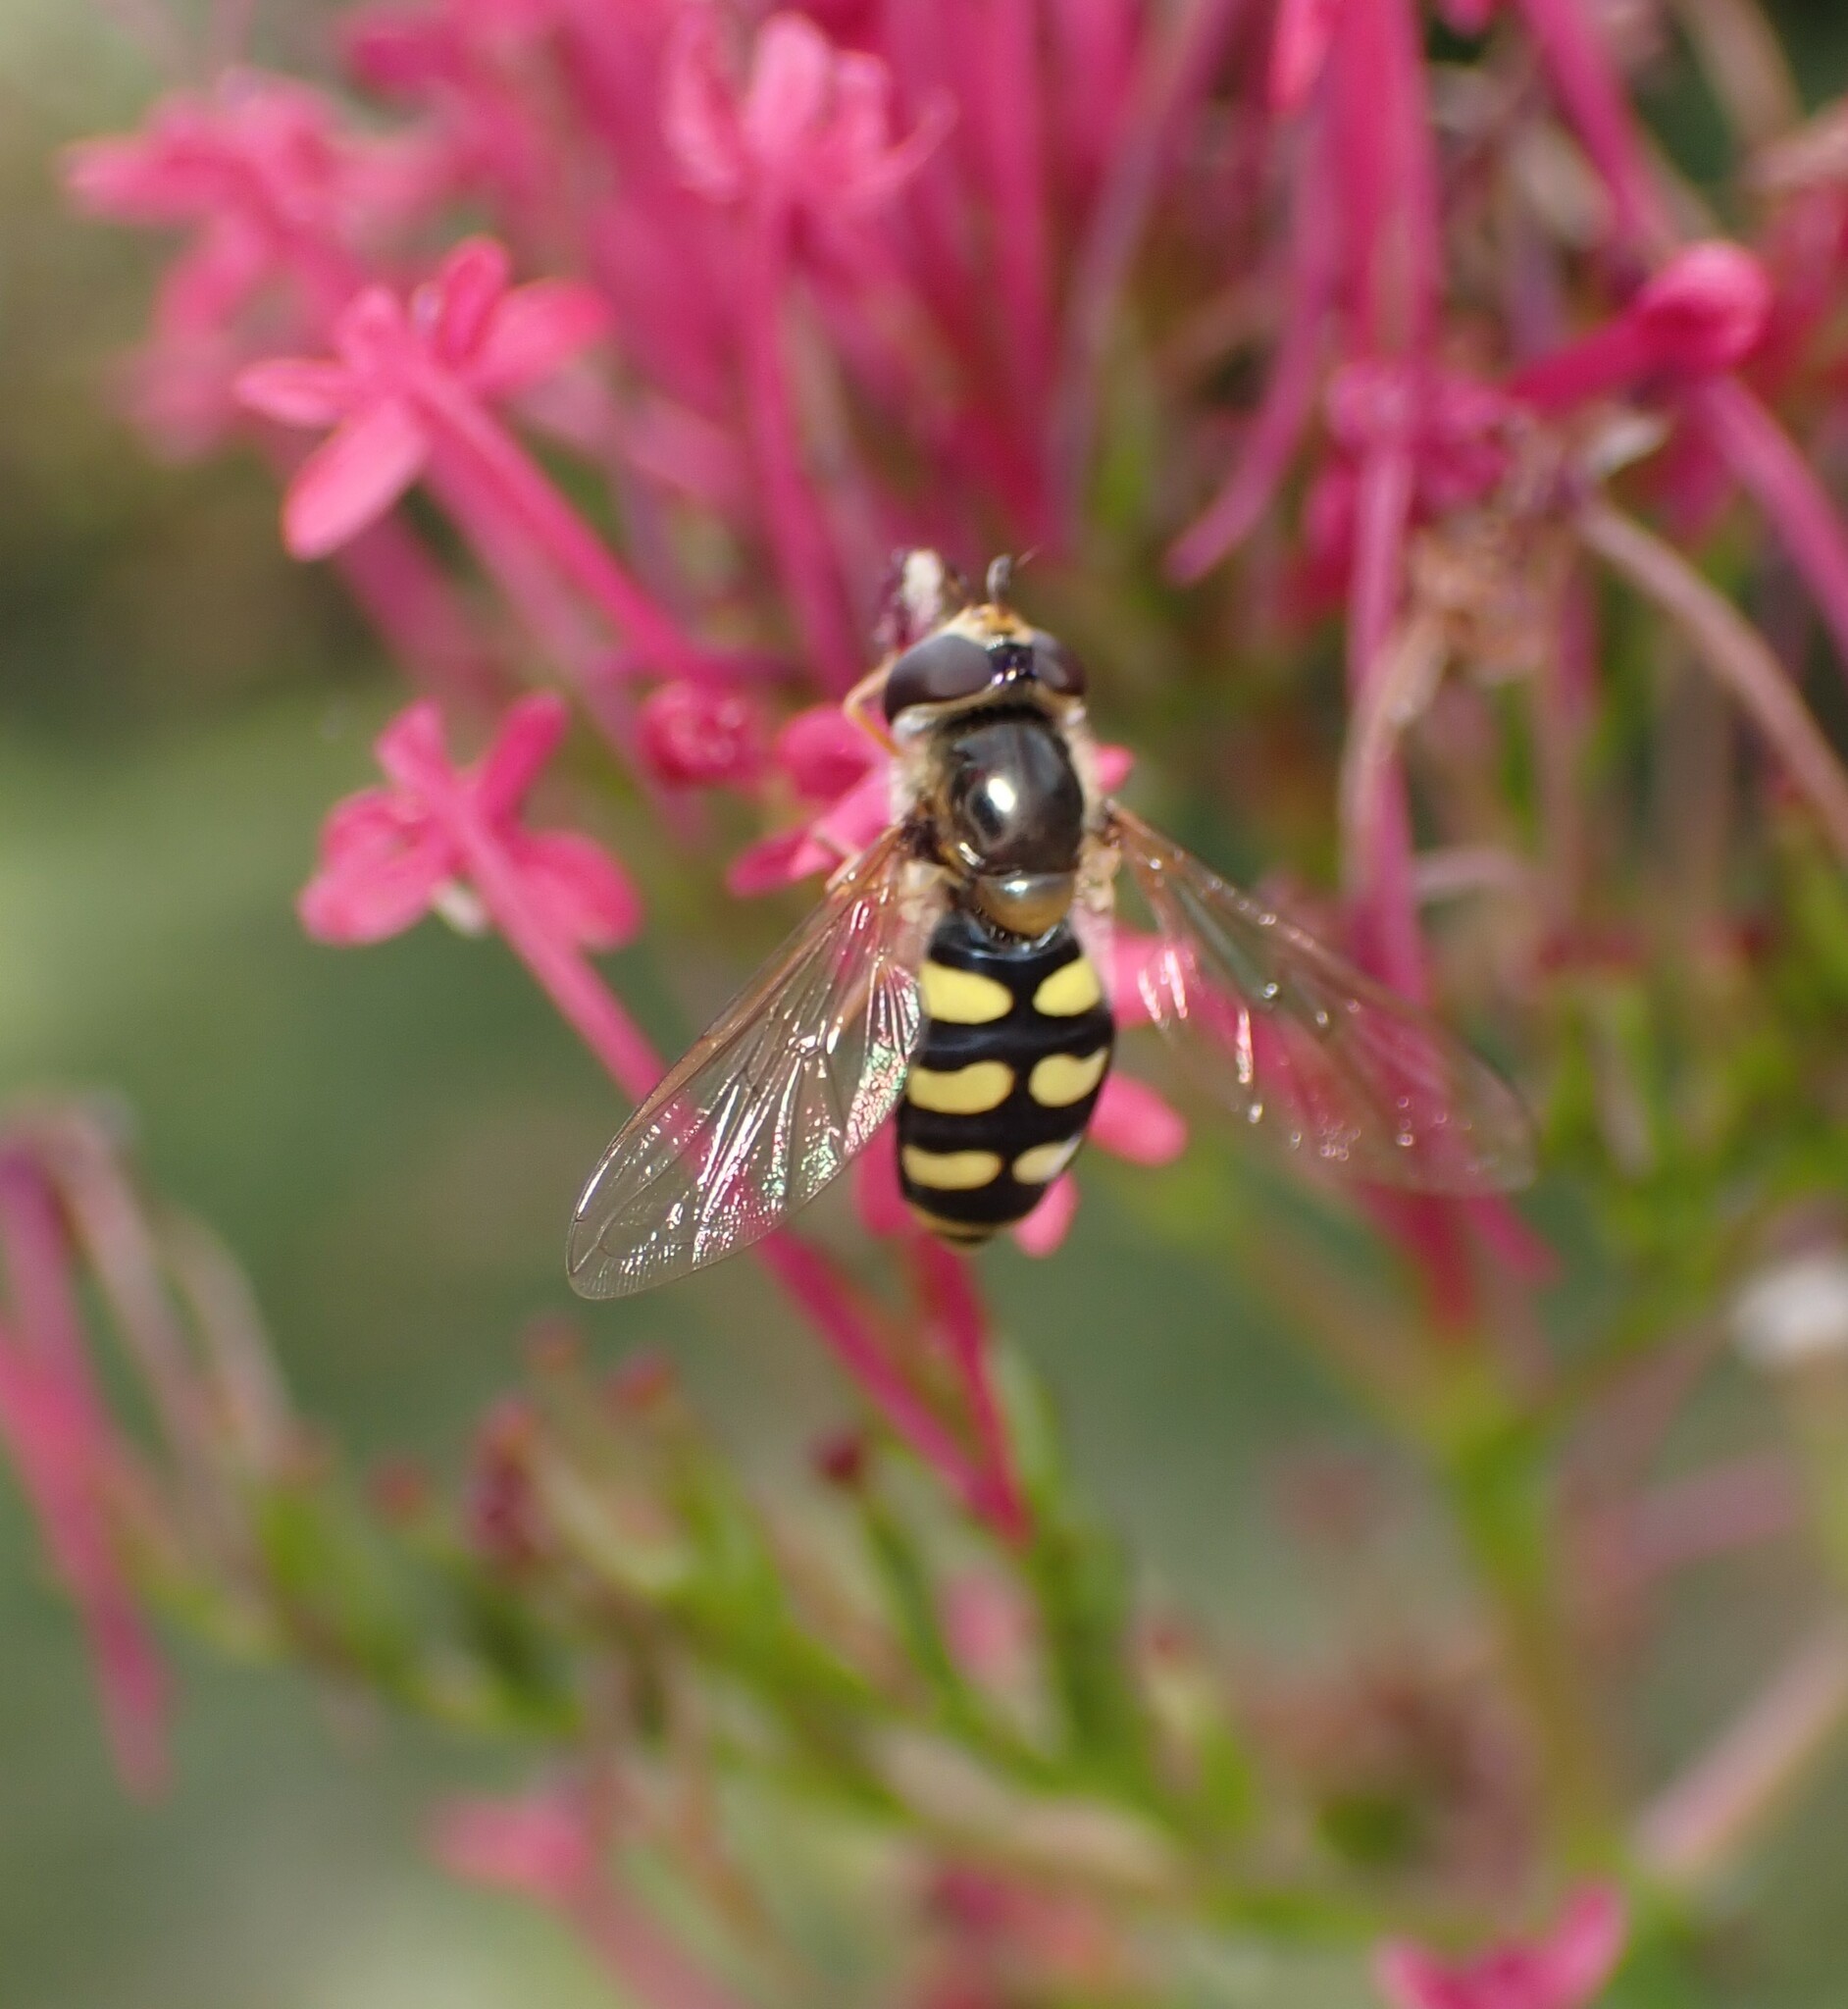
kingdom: Animalia
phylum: Arthropoda
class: Insecta
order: Diptera
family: Syrphidae
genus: Eupeodes
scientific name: Eupeodes
